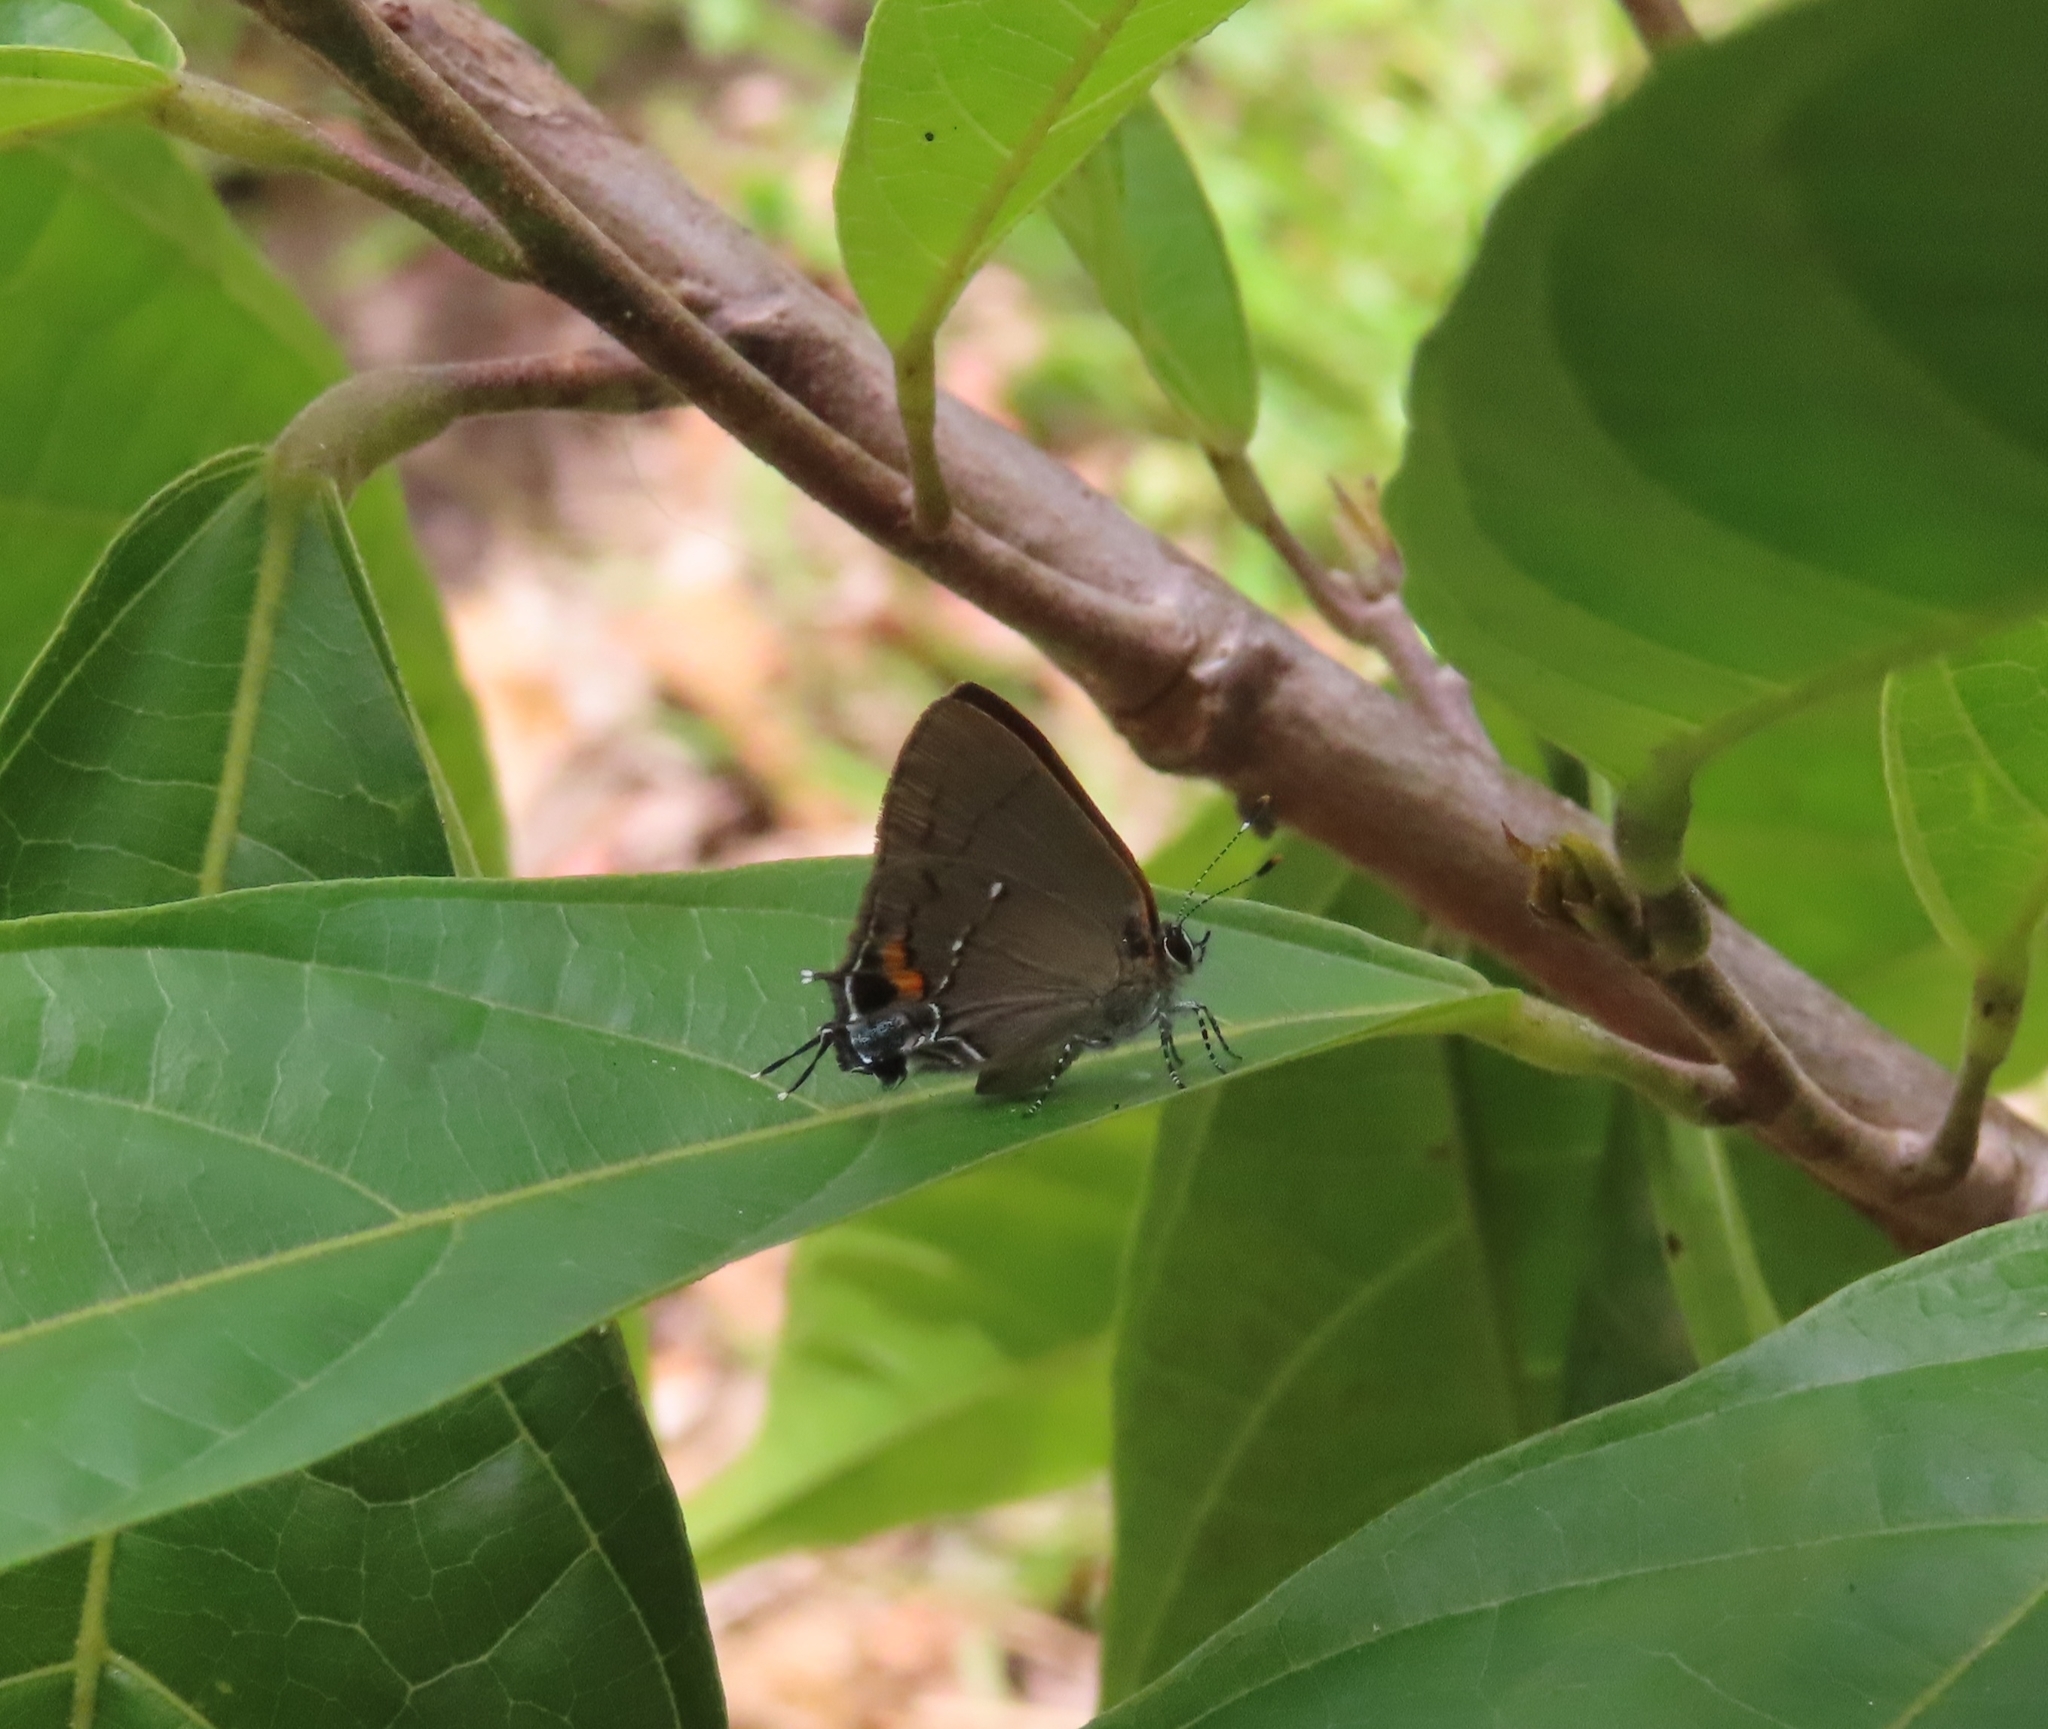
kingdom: Animalia
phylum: Arthropoda
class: Insecta
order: Lepidoptera
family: Lycaenidae
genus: Thecla
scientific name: Thecla angelia
